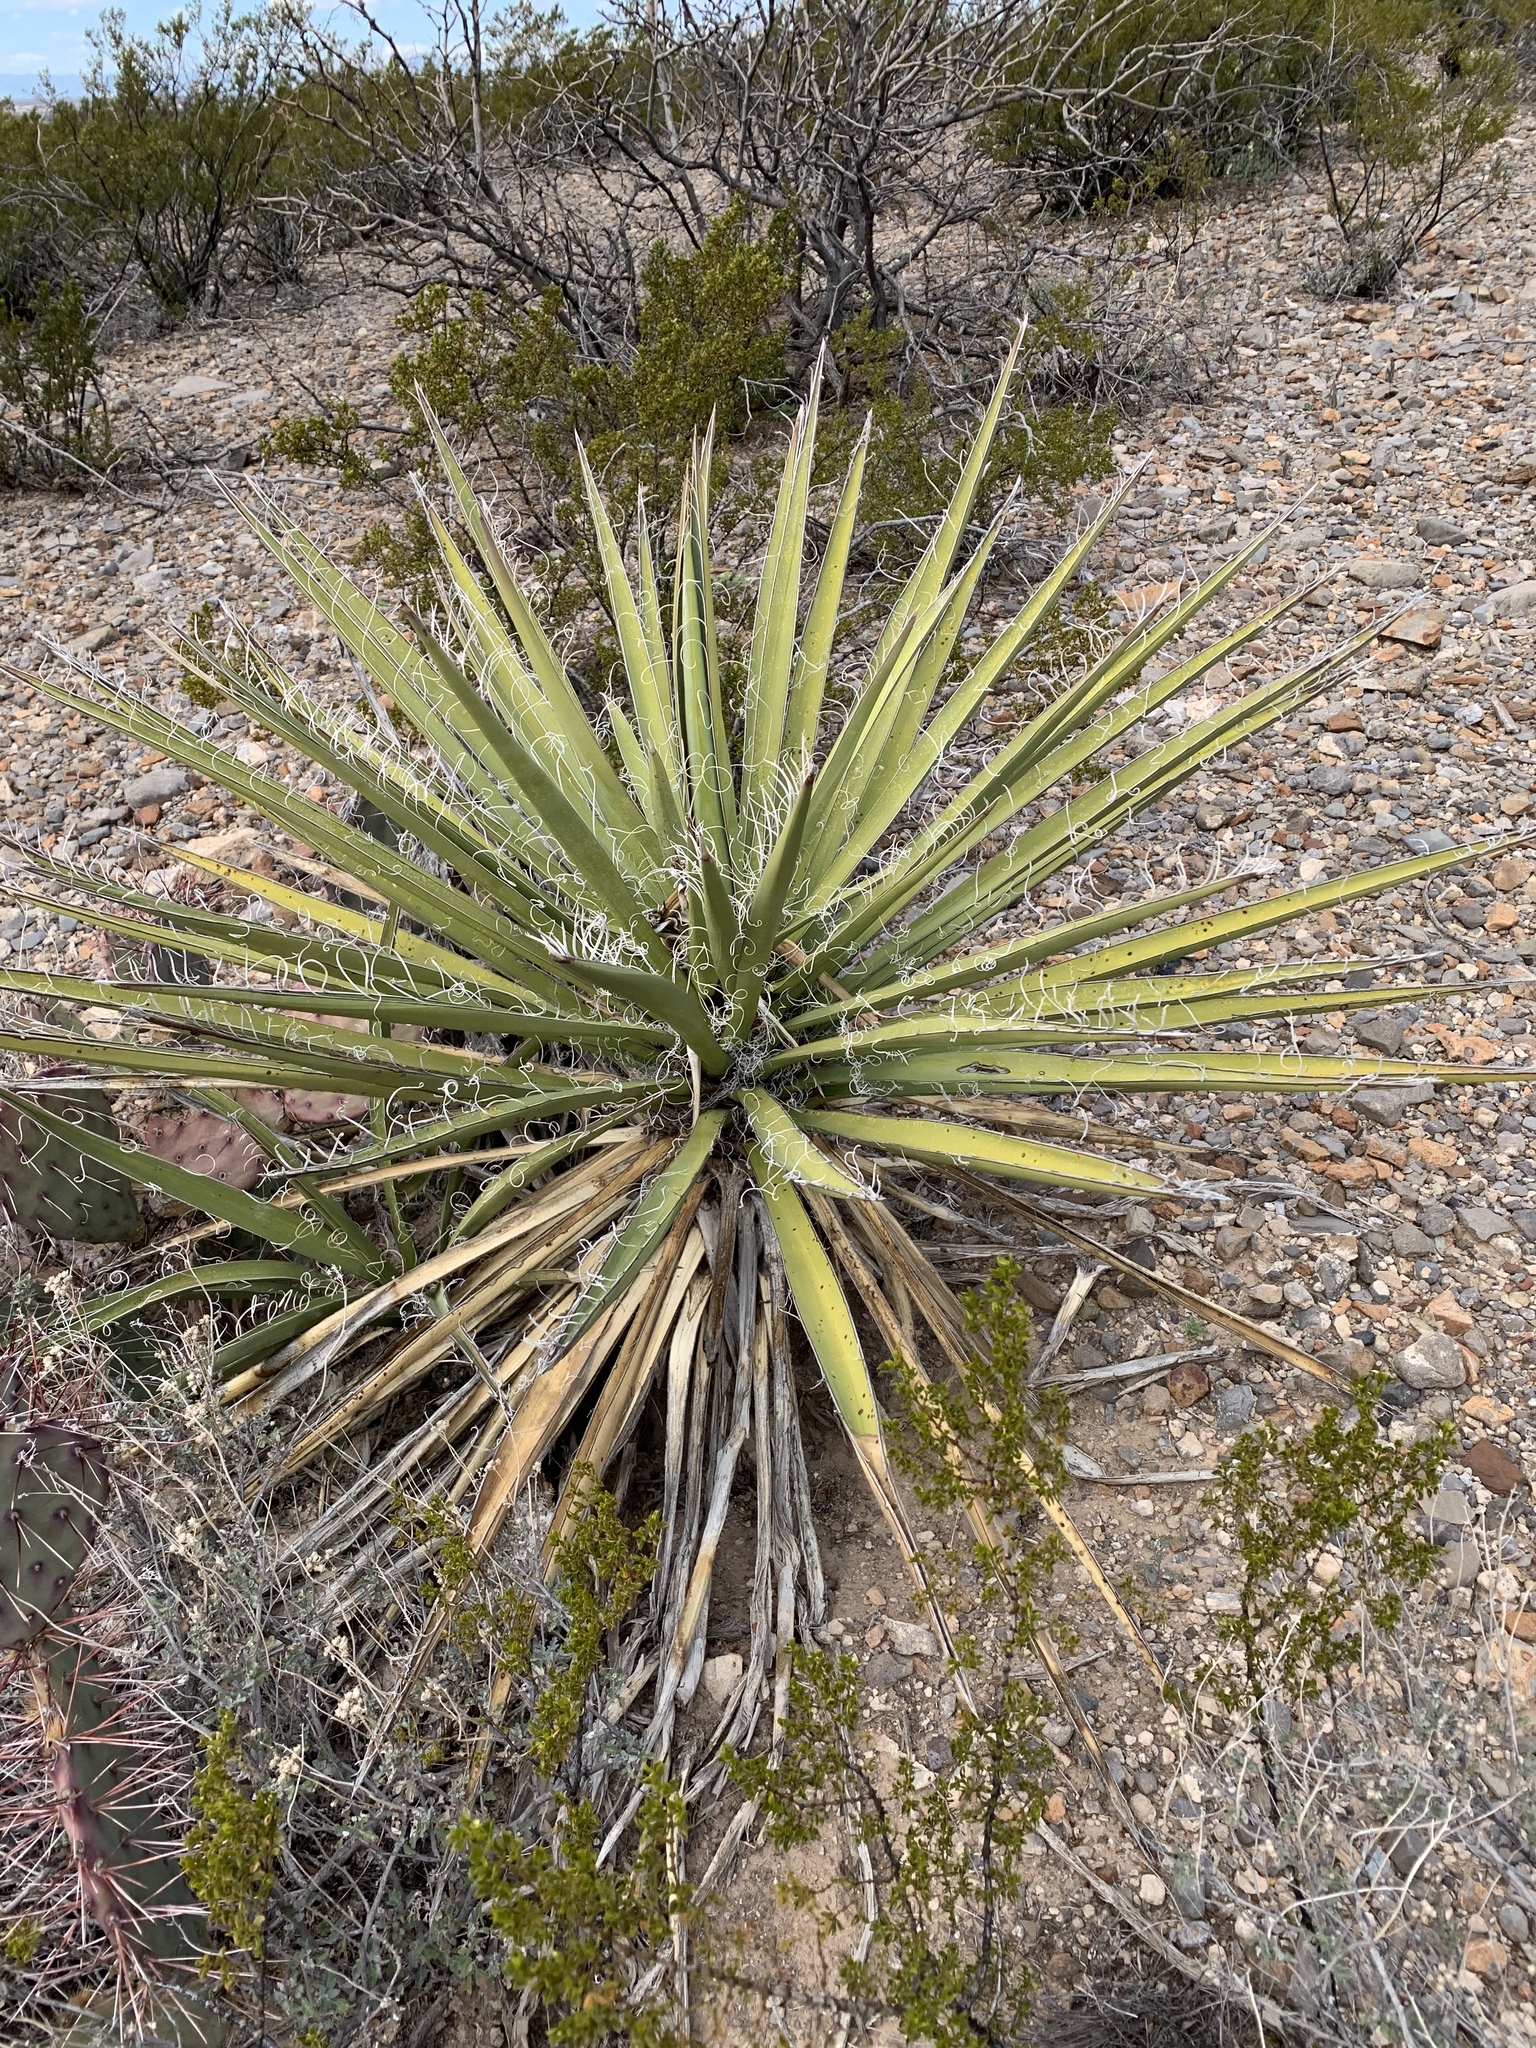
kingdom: Plantae
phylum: Tracheophyta
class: Liliopsida
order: Asparagales
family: Asparagaceae
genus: Yucca
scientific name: Yucca baccata
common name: Banana yucca
